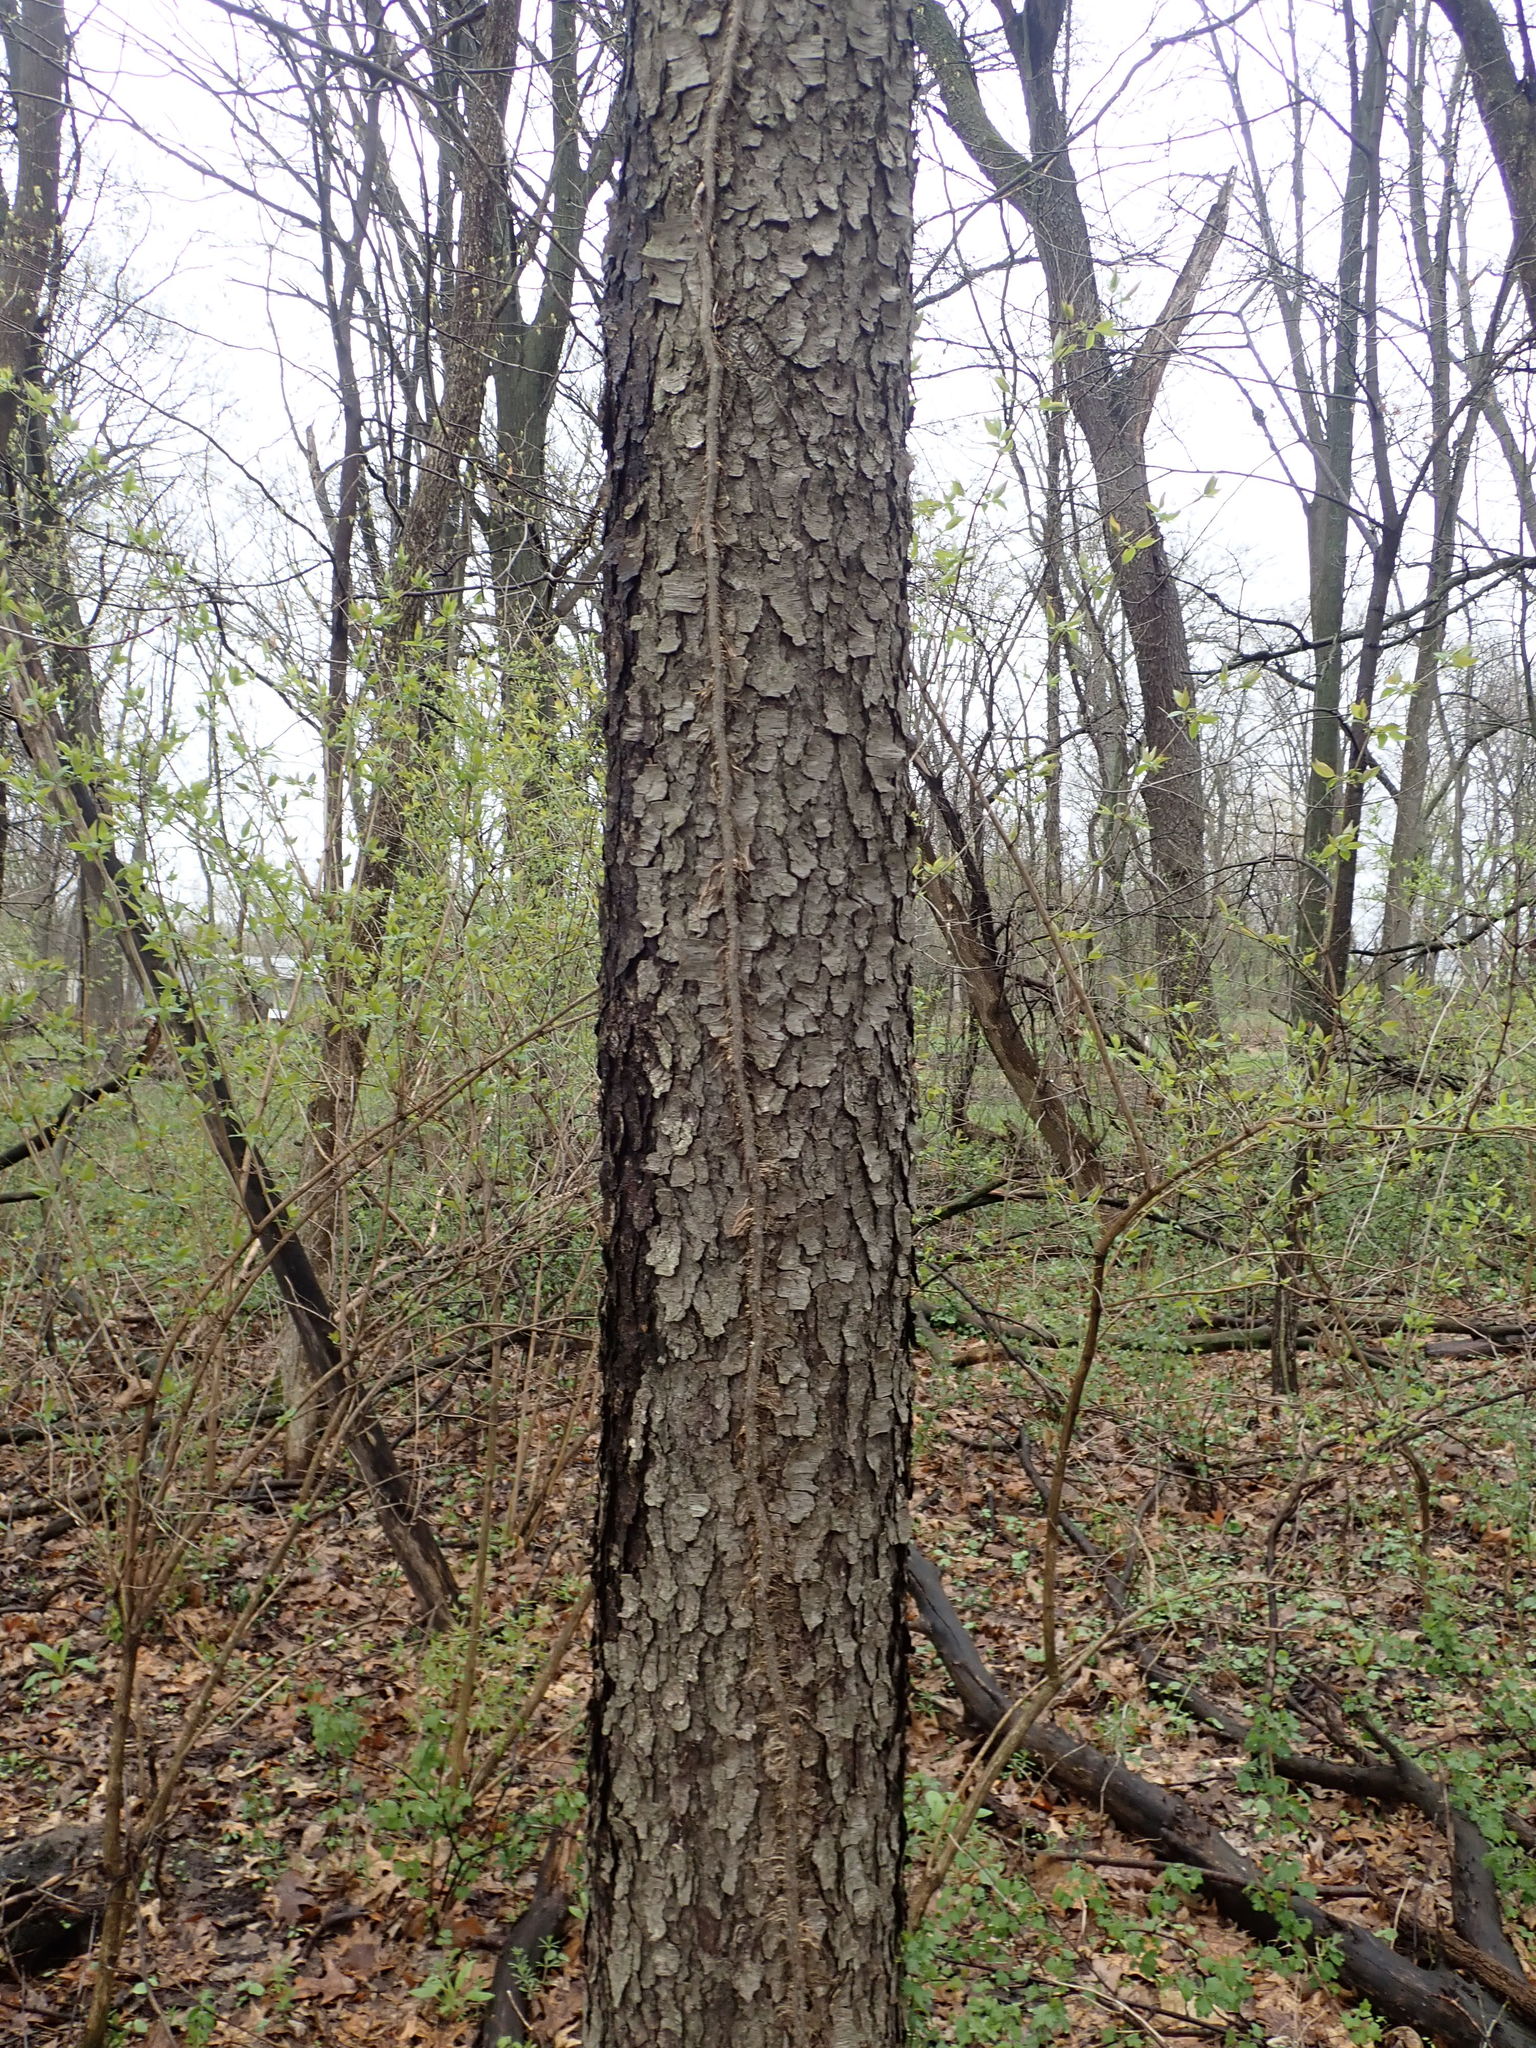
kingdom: Plantae
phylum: Tracheophyta
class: Magnoliopsida
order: Rosales
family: Rosaceae
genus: Prunus
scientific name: Prunus serotina
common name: Black cherry
